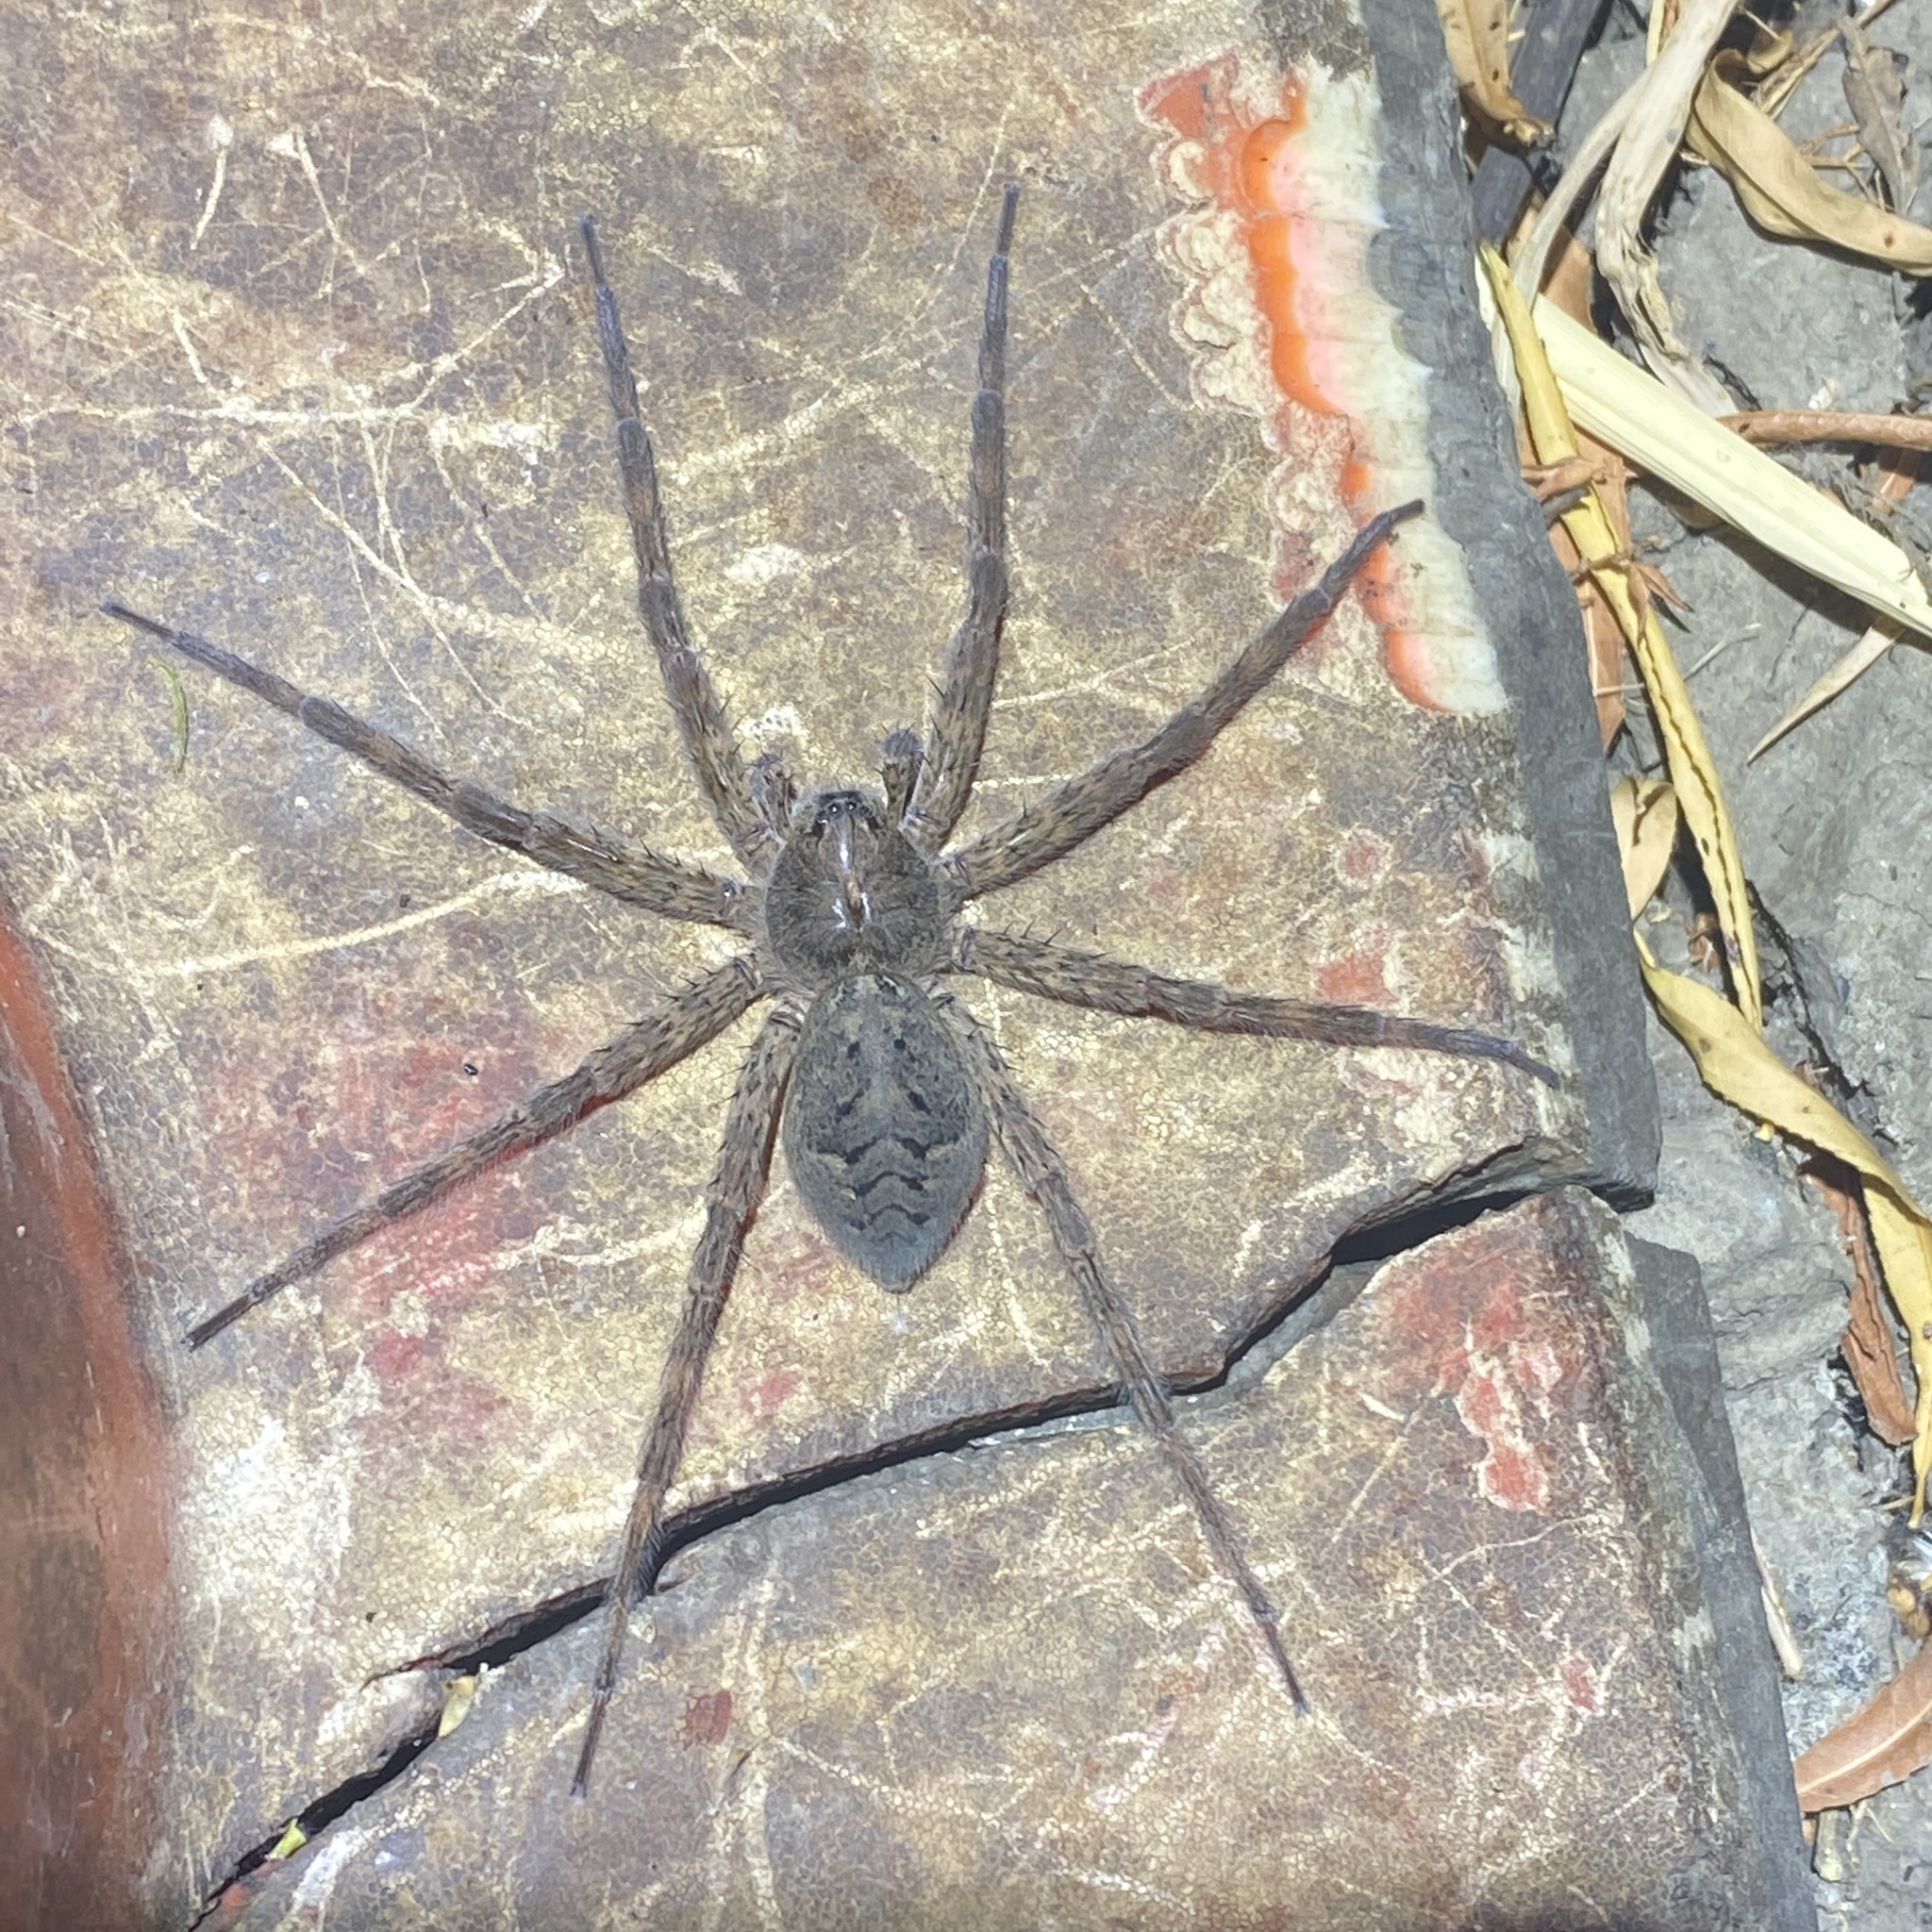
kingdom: Animalia
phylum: Arthropoda
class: Arachnida
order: Araneae
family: Pisauridae
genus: Dolomedes
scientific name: Dolomedes tenebrosus
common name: Dark fishing spider
